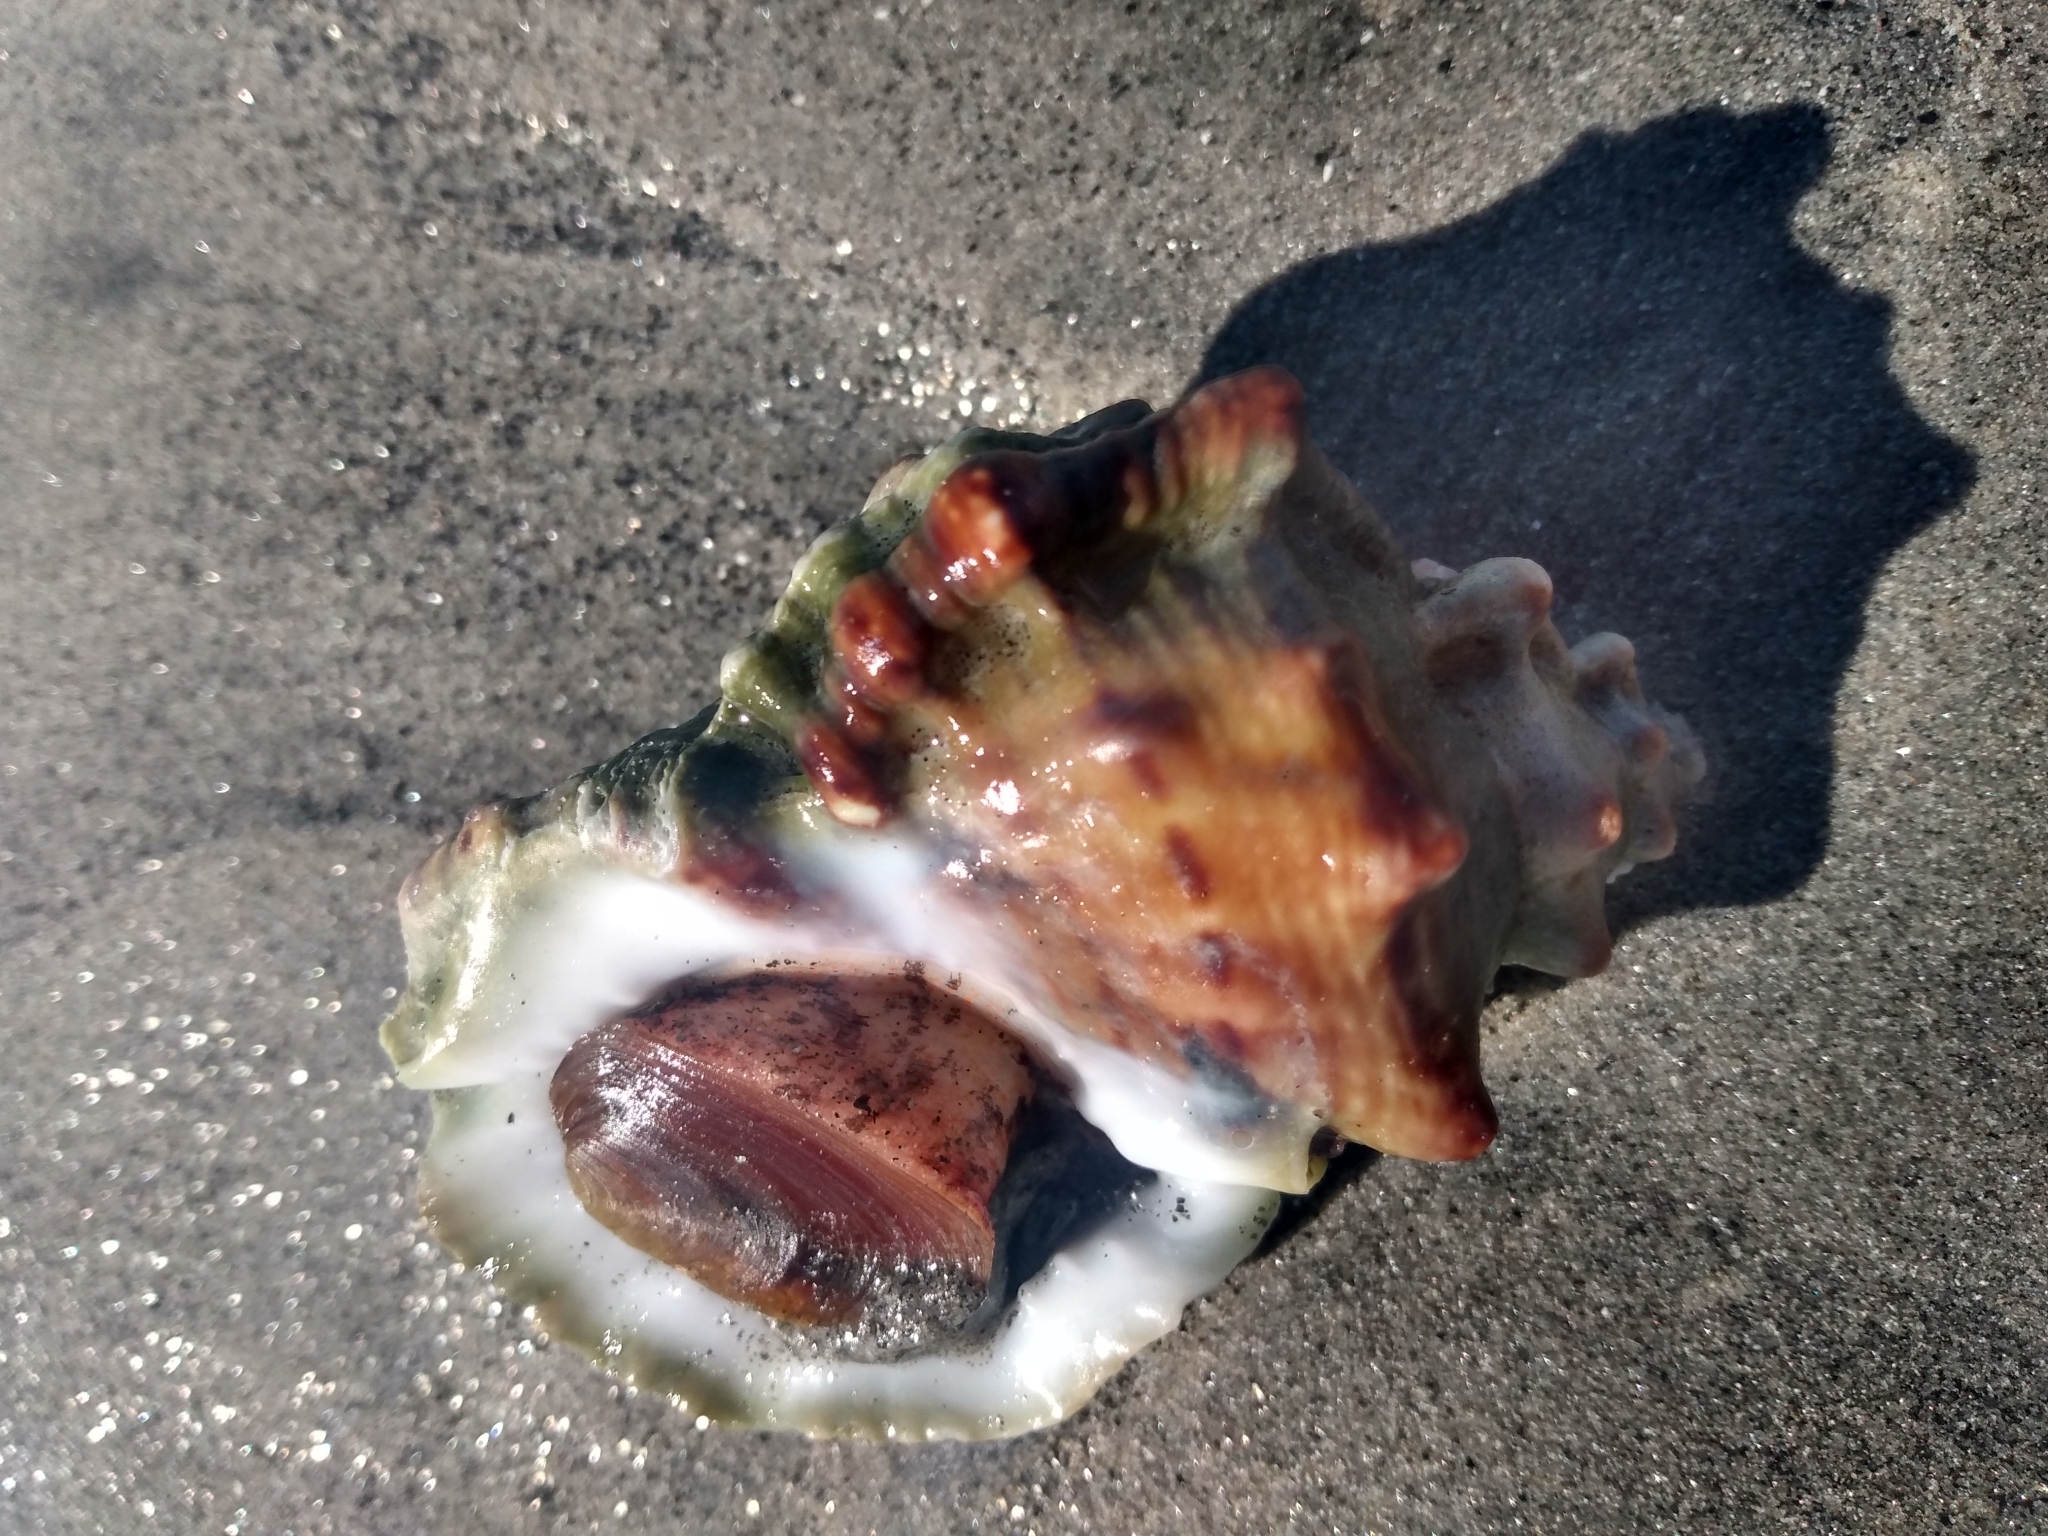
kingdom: Animalia
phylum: Mollusca
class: Gastropoda
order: Littorinimorpha
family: Bursidae
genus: Crossata
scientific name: Crossata californica
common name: California frogsnail
